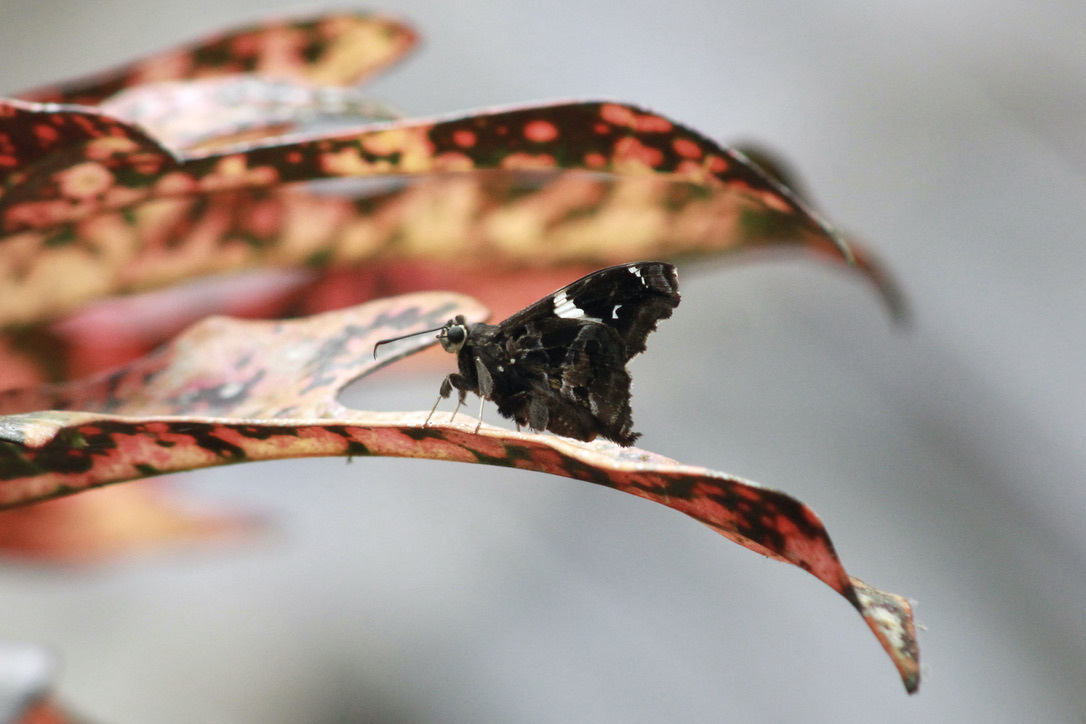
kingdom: Animalia
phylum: Arthropoda
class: Insecta
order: Lepidoptera
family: Hesperiidae
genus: Spathilepia
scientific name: Spathilepia clonius
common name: Falcate skipper
